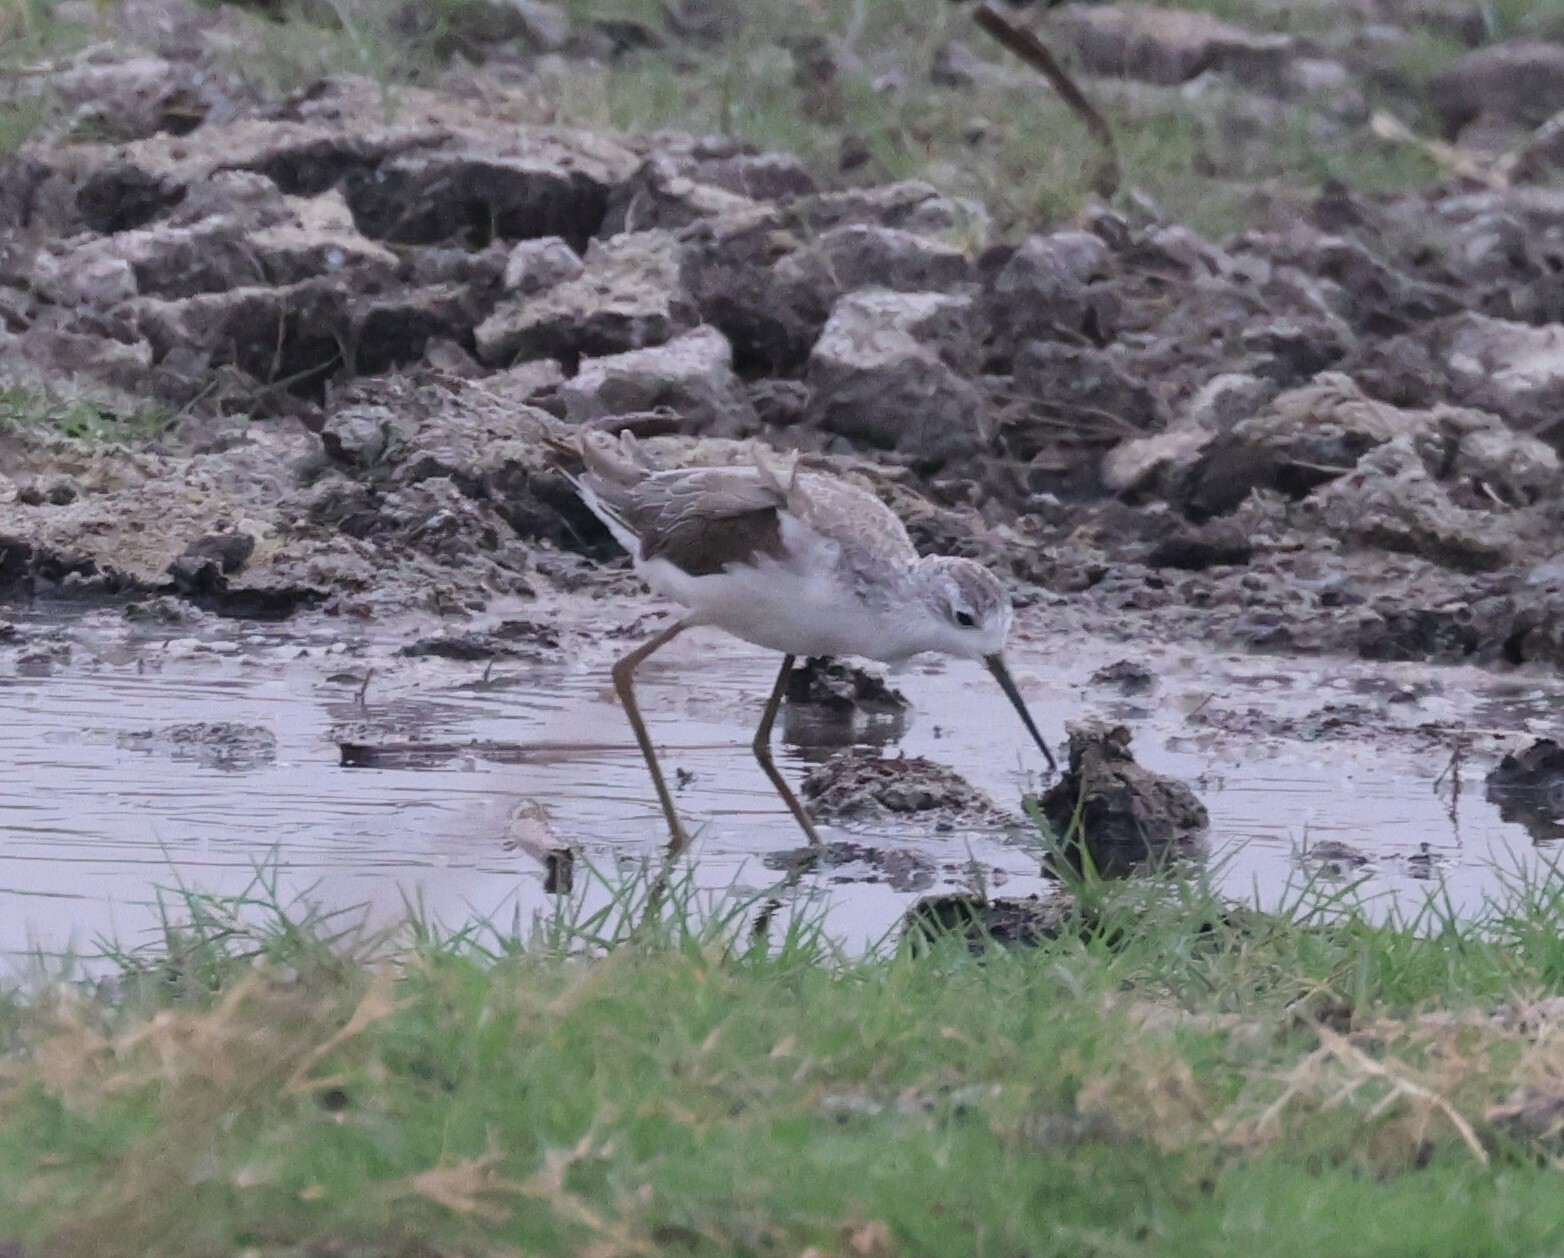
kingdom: Animalia
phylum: Chordata
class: Aves
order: Charadriiformes
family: Scolopacidae
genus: Tringa
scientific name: Tringa stagnatilis
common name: Marsh sandpiper
